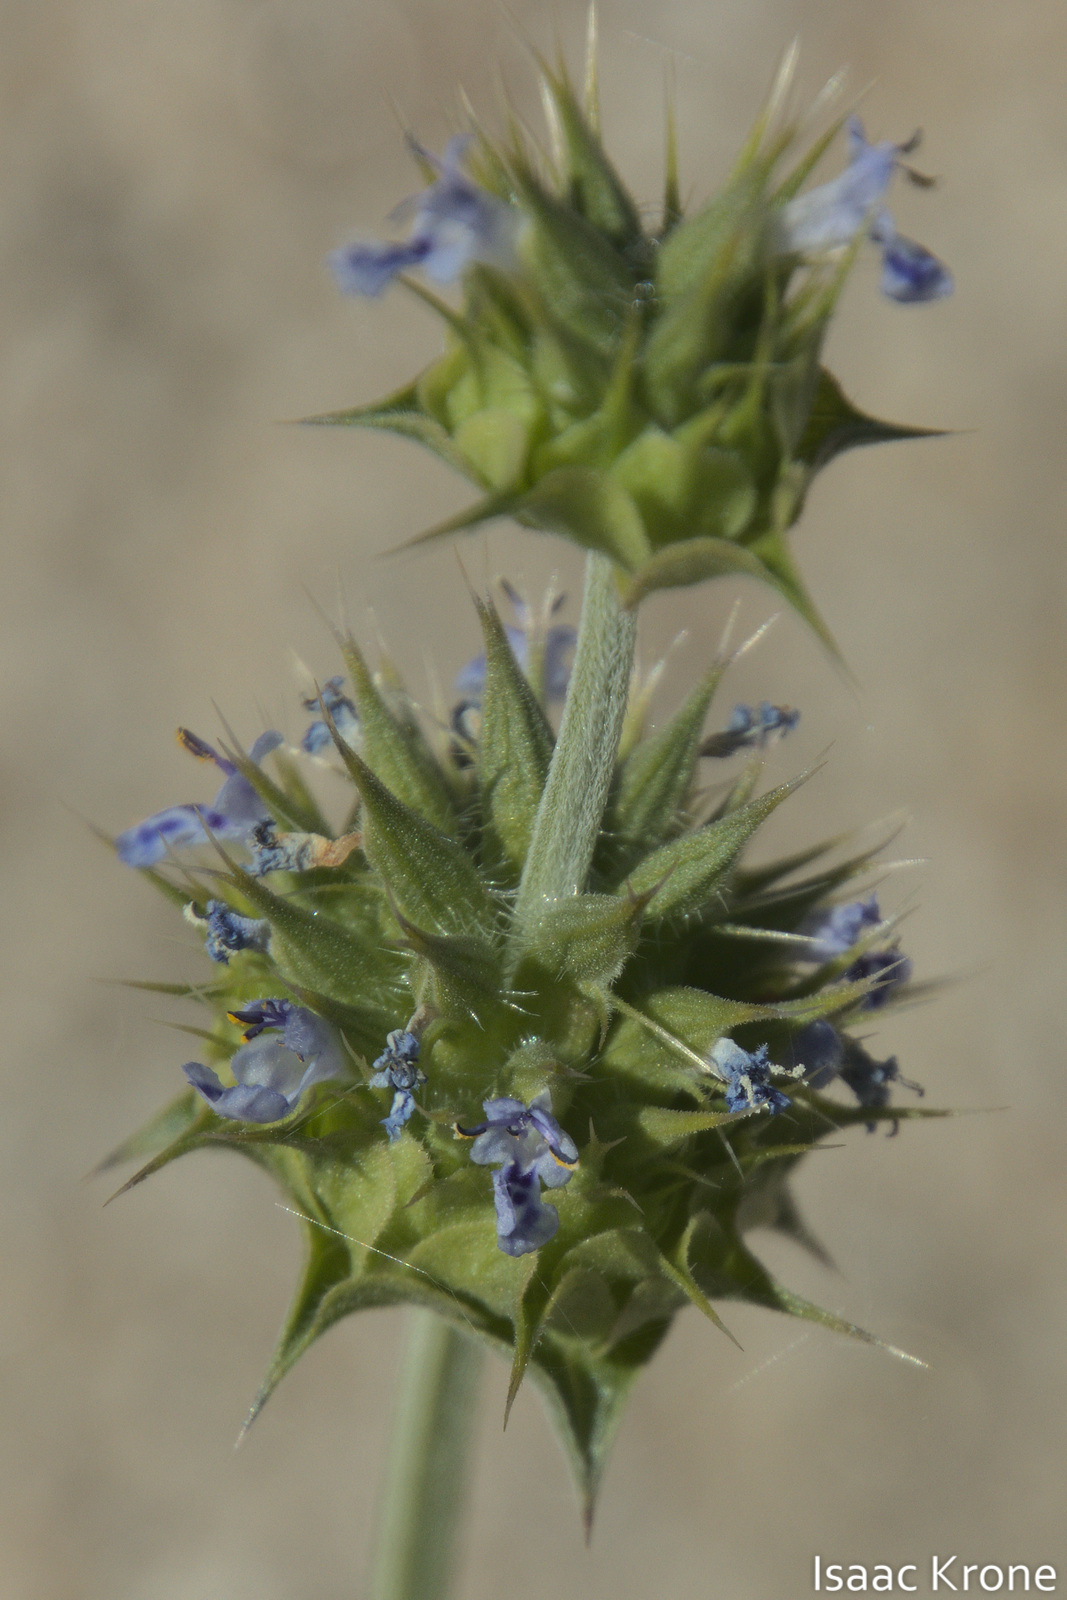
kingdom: Plantae
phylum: Tracheophyta
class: Magnoliopsida
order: Lamiales
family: Lamiaceae
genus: Salvia
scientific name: Salvia columbariae
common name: Chia
